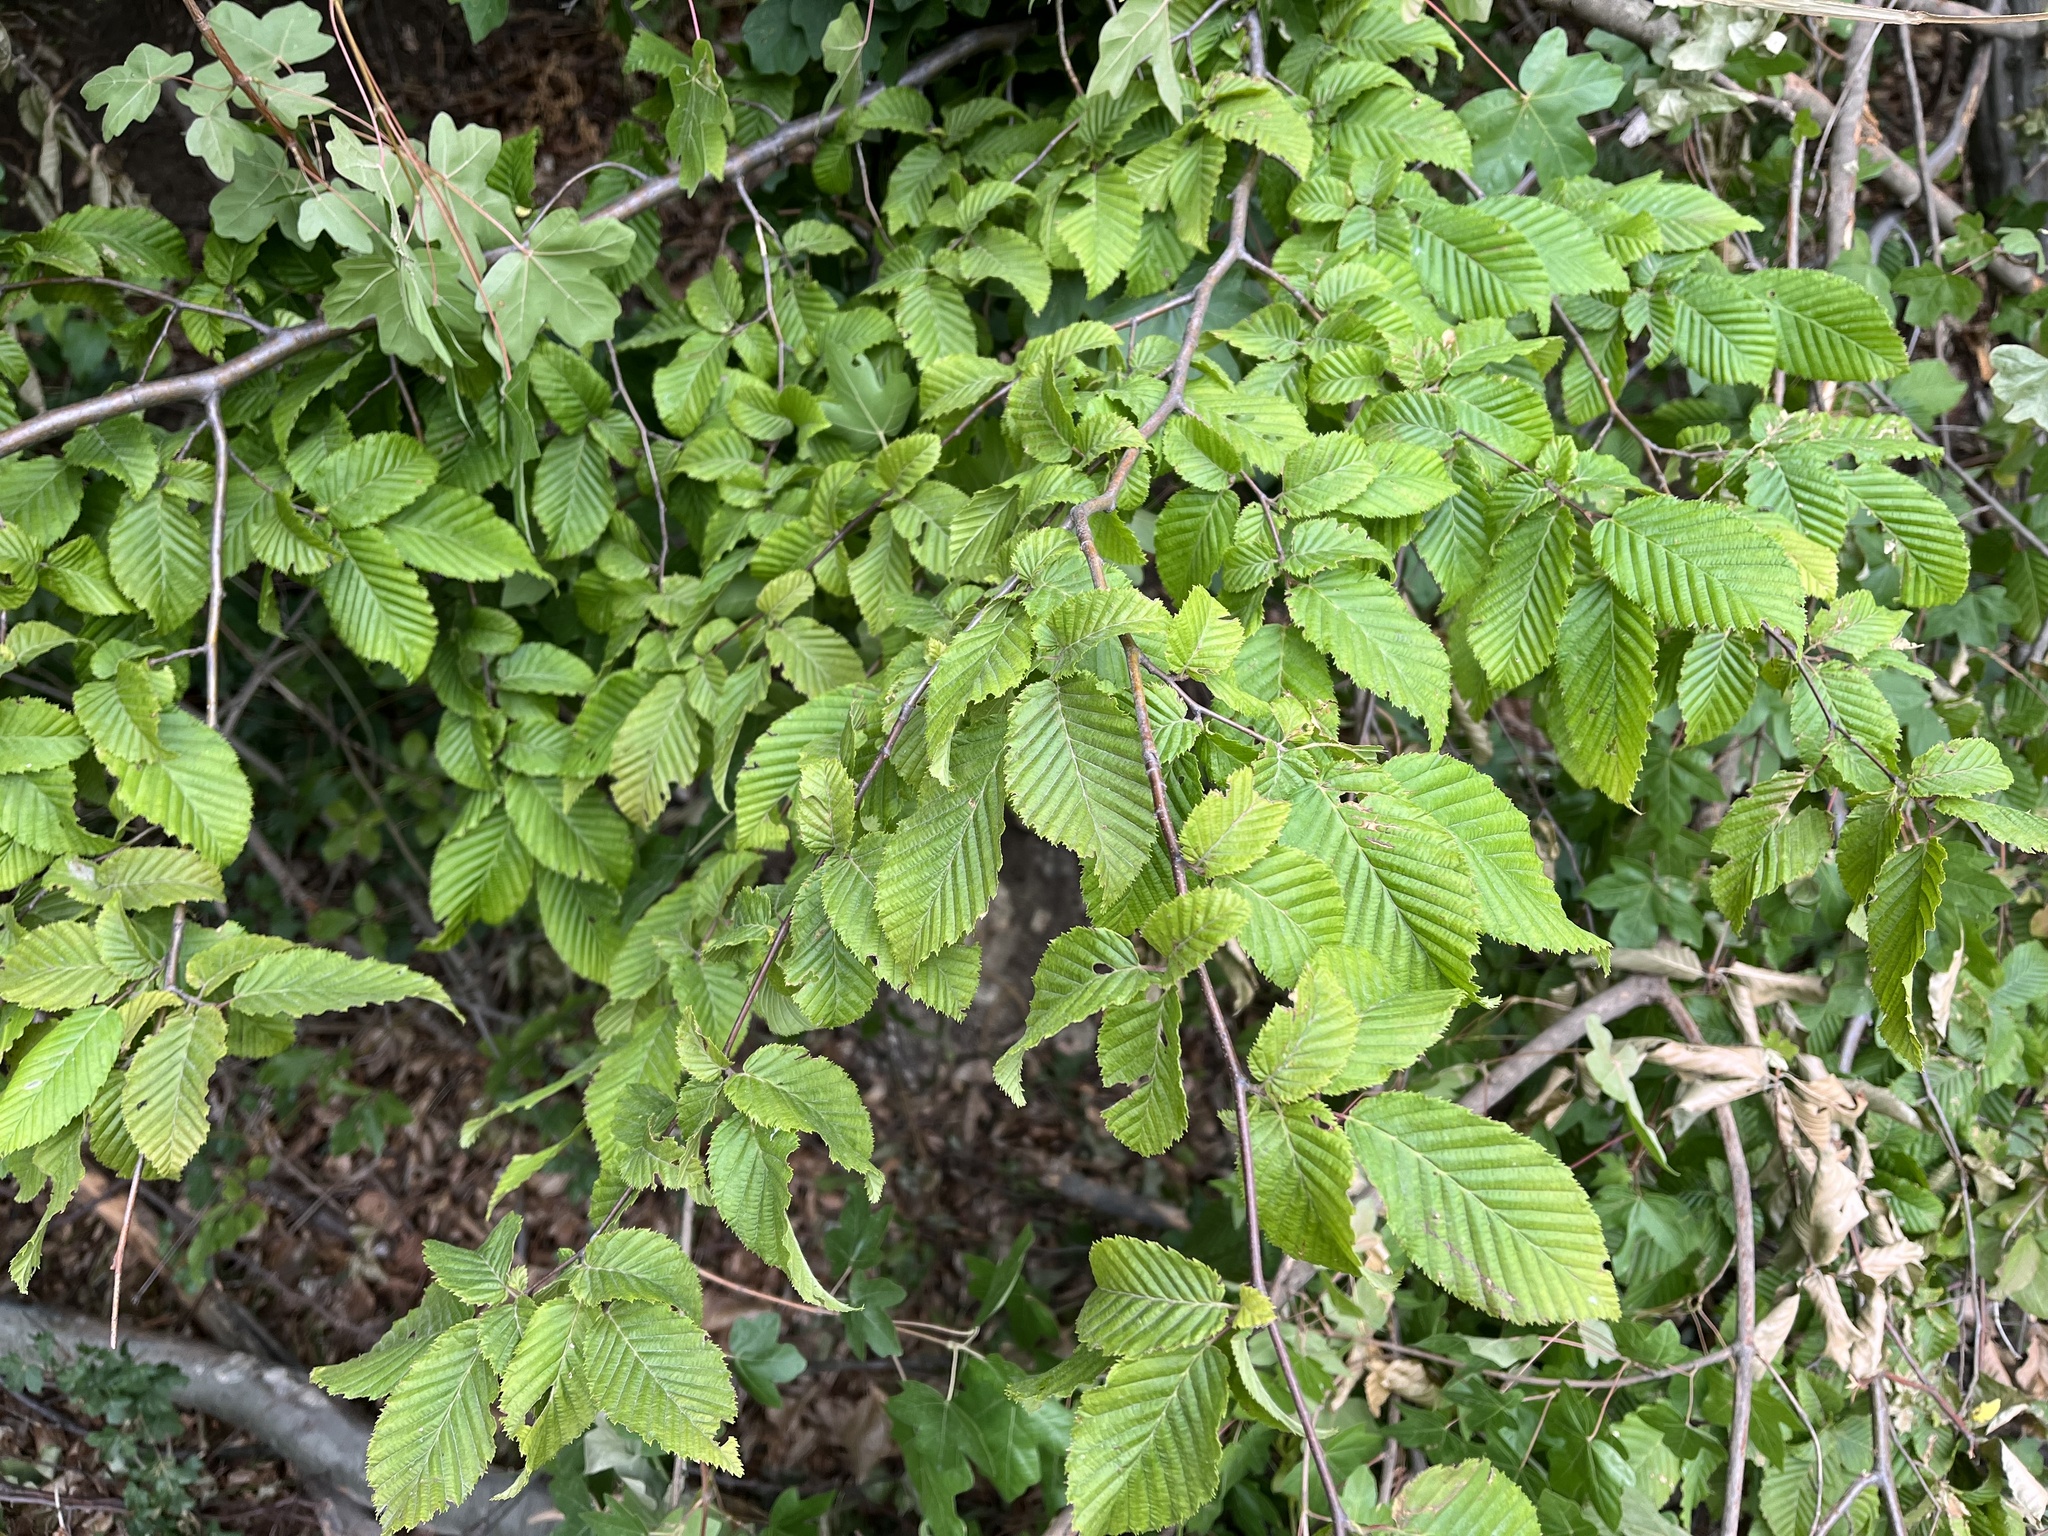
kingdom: Plantae
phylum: Tracheophyta
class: Magnoliopsida
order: Fagales
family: Betulaceae
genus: Carpinus
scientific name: Carpinus betulus
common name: Hornbeam
